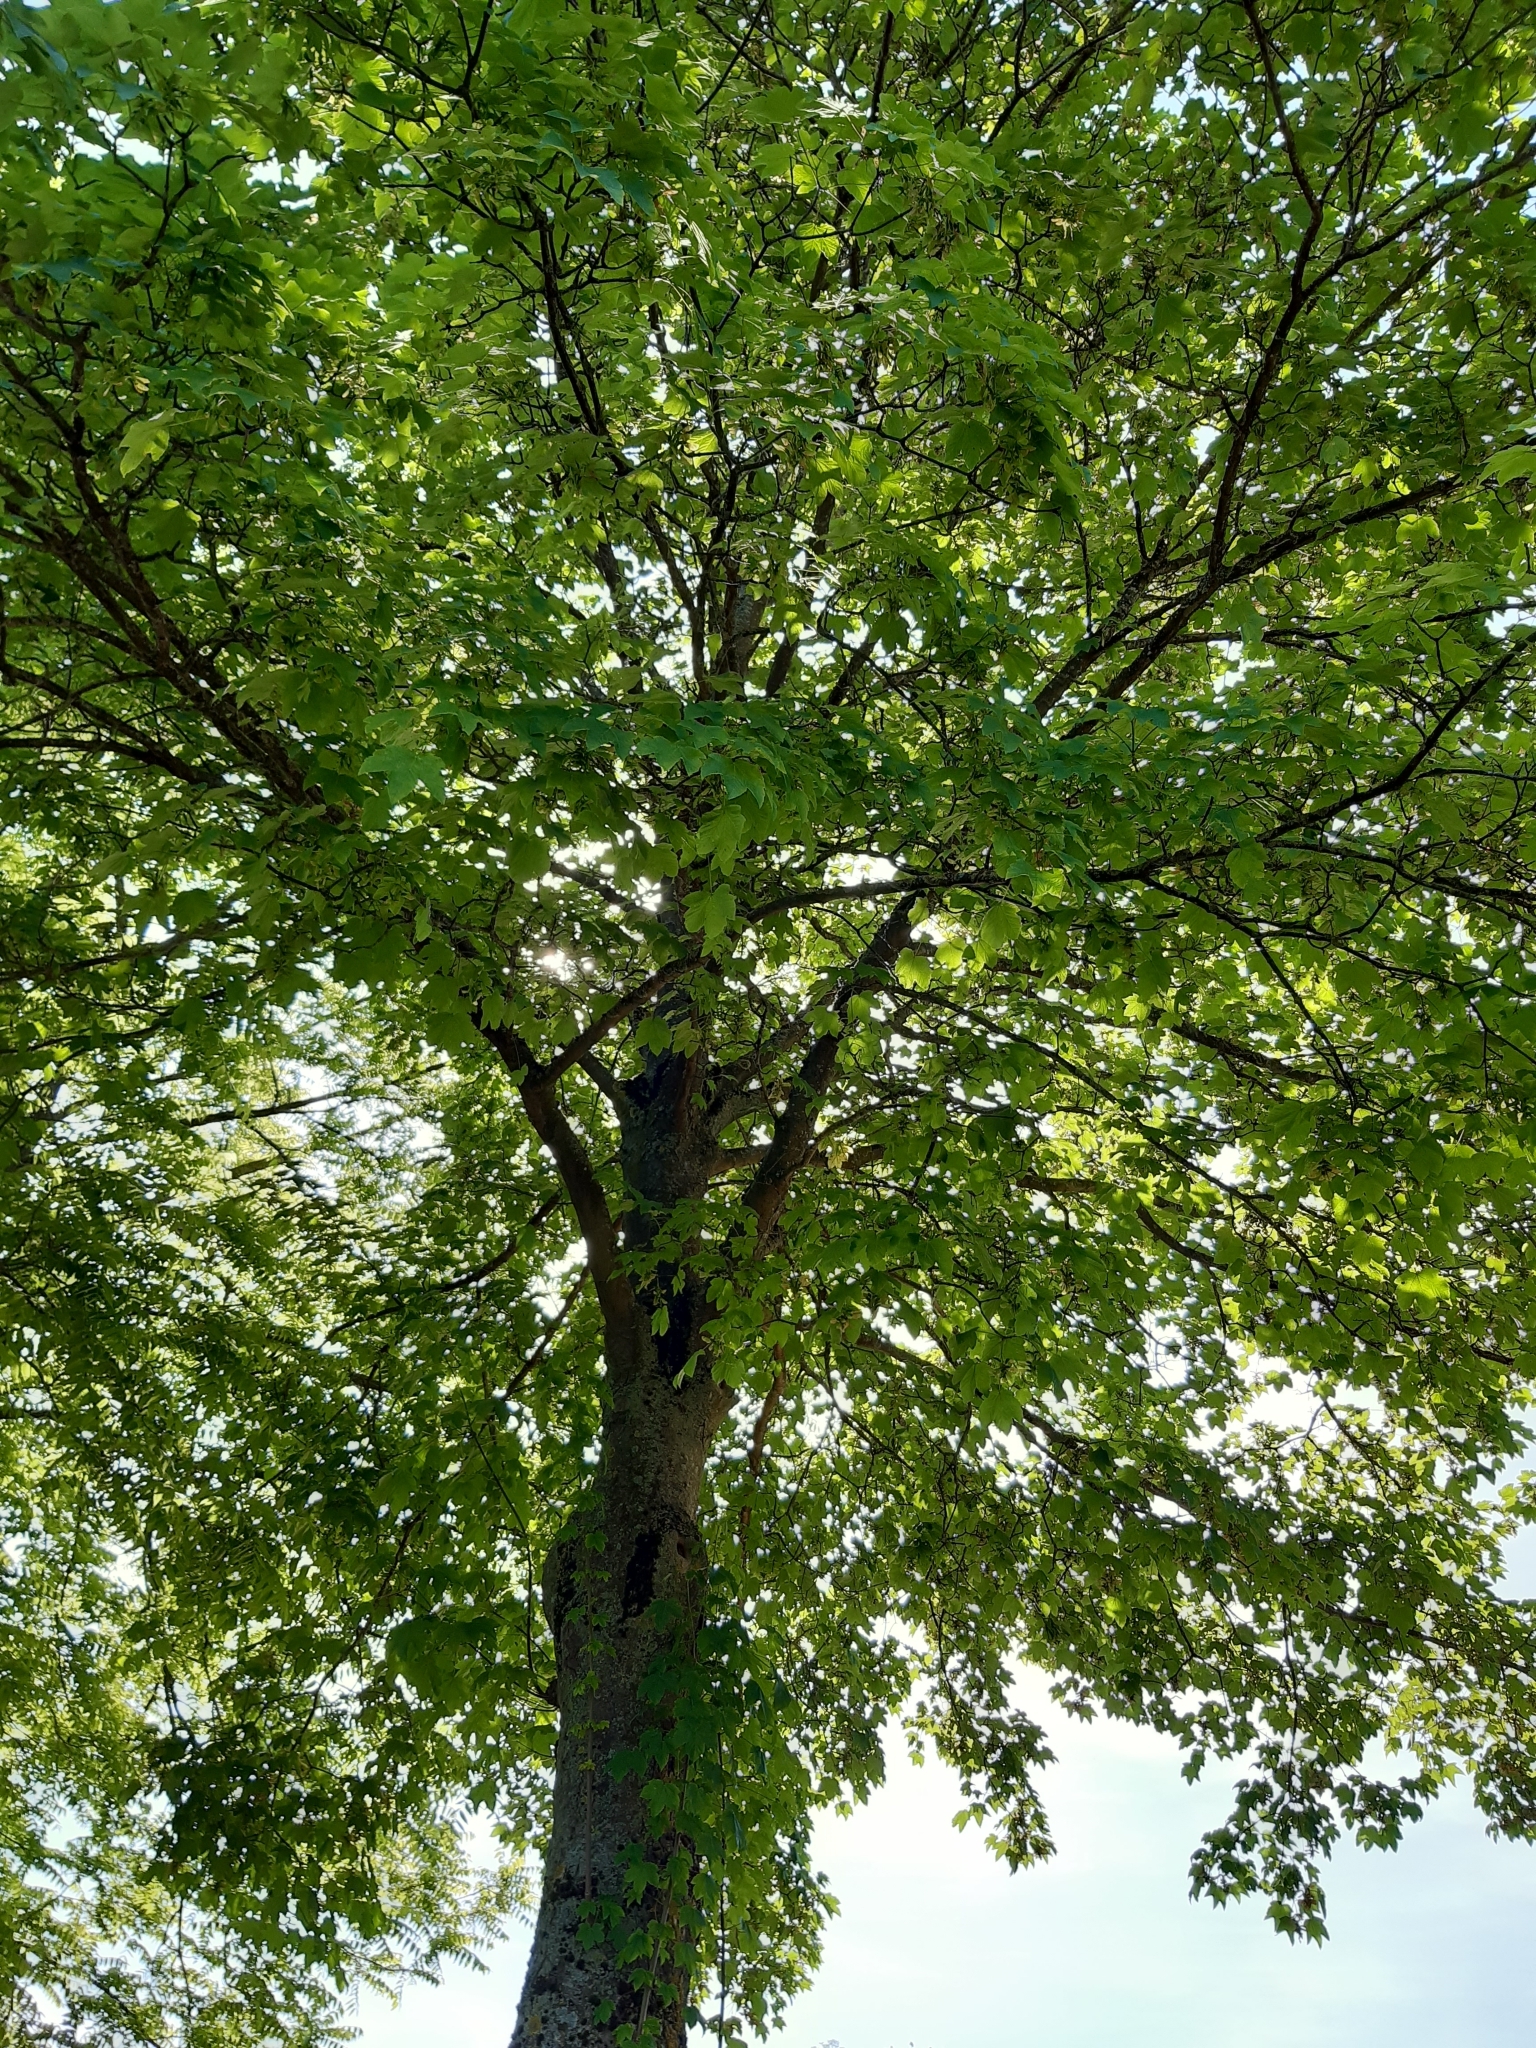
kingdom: Plantae
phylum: Tracheophyta
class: Magnoliopsida
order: Sapindales
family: Sapindaceae
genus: Acer
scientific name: Acer pseudoplatanus
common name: Sycamore
